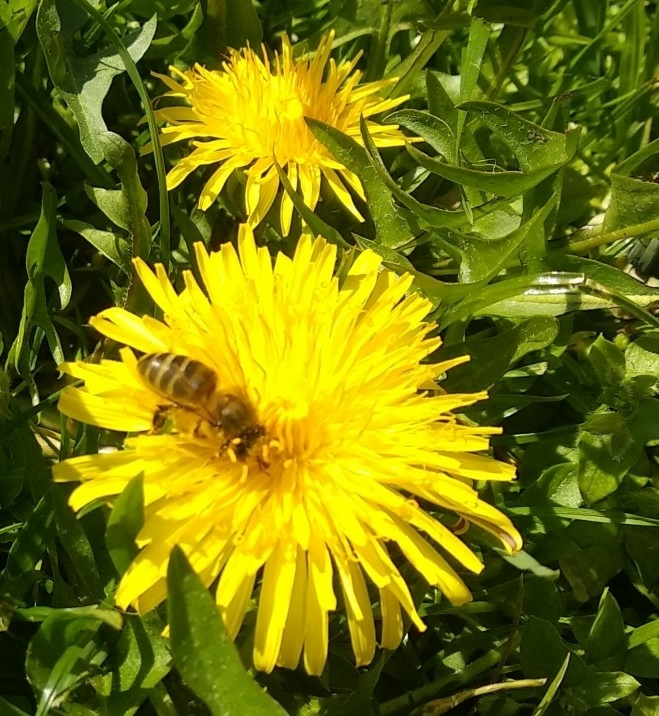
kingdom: Animalia
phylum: Arthropoda
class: Insecta
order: Hymenoptera
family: Apidae
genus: Apis
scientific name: Apis mellifera
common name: Honey bee
